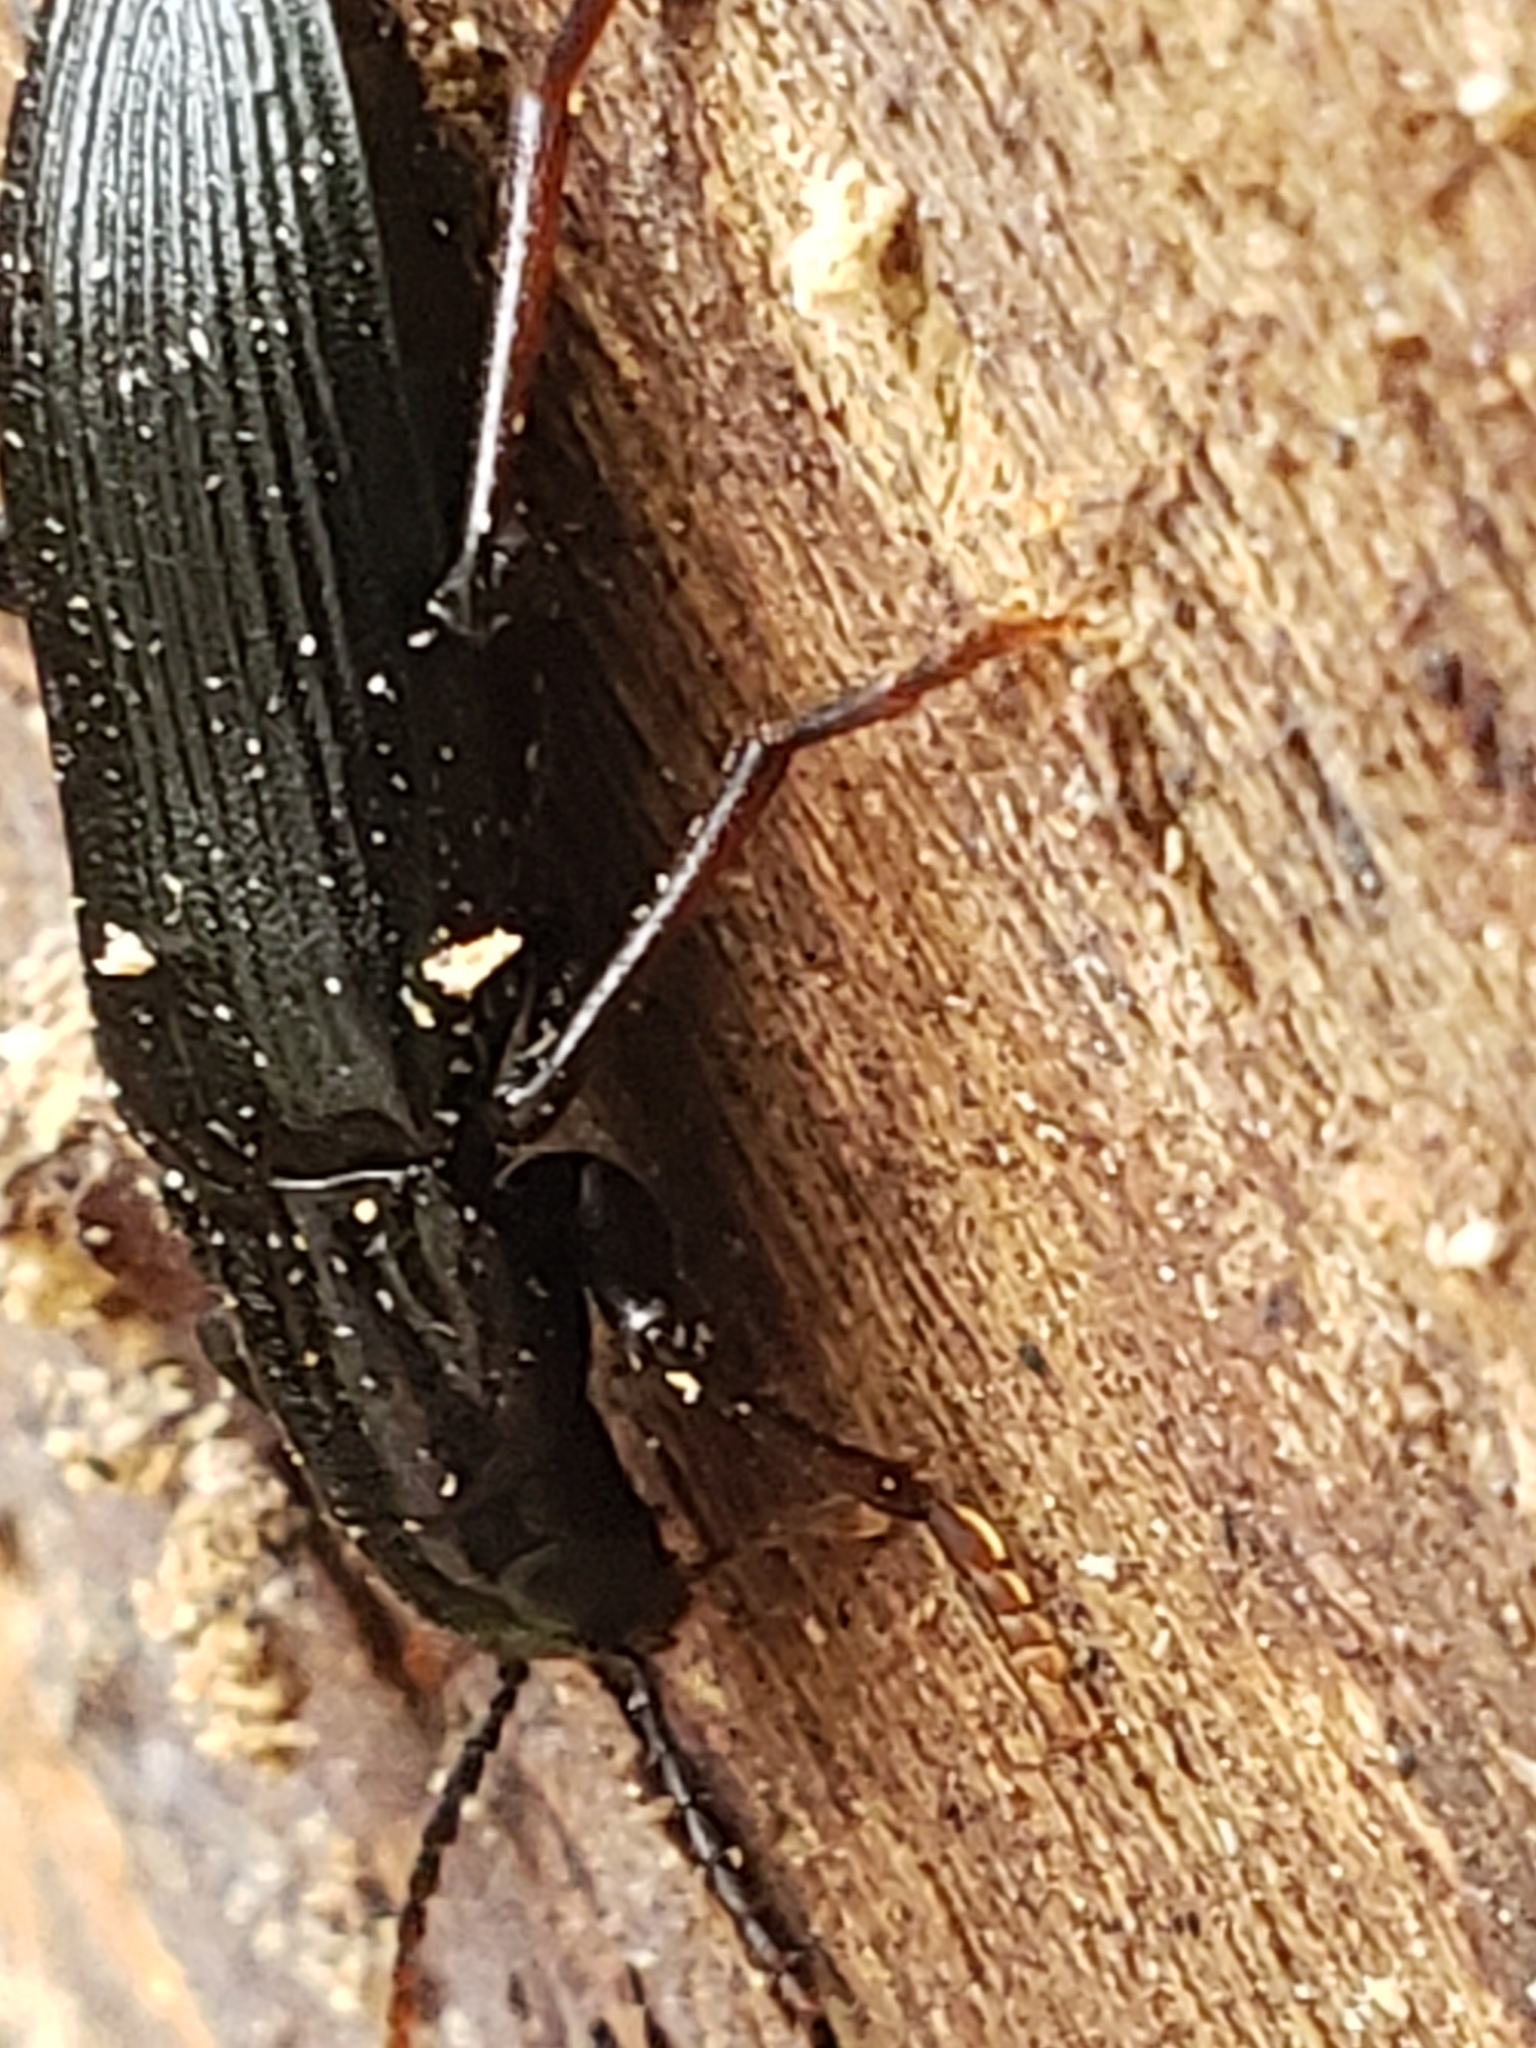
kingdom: Animalia
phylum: Arthropoda
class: Insecta
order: Coleoptera
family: Melandryidae
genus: Melandrya
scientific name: Melandrya striata
